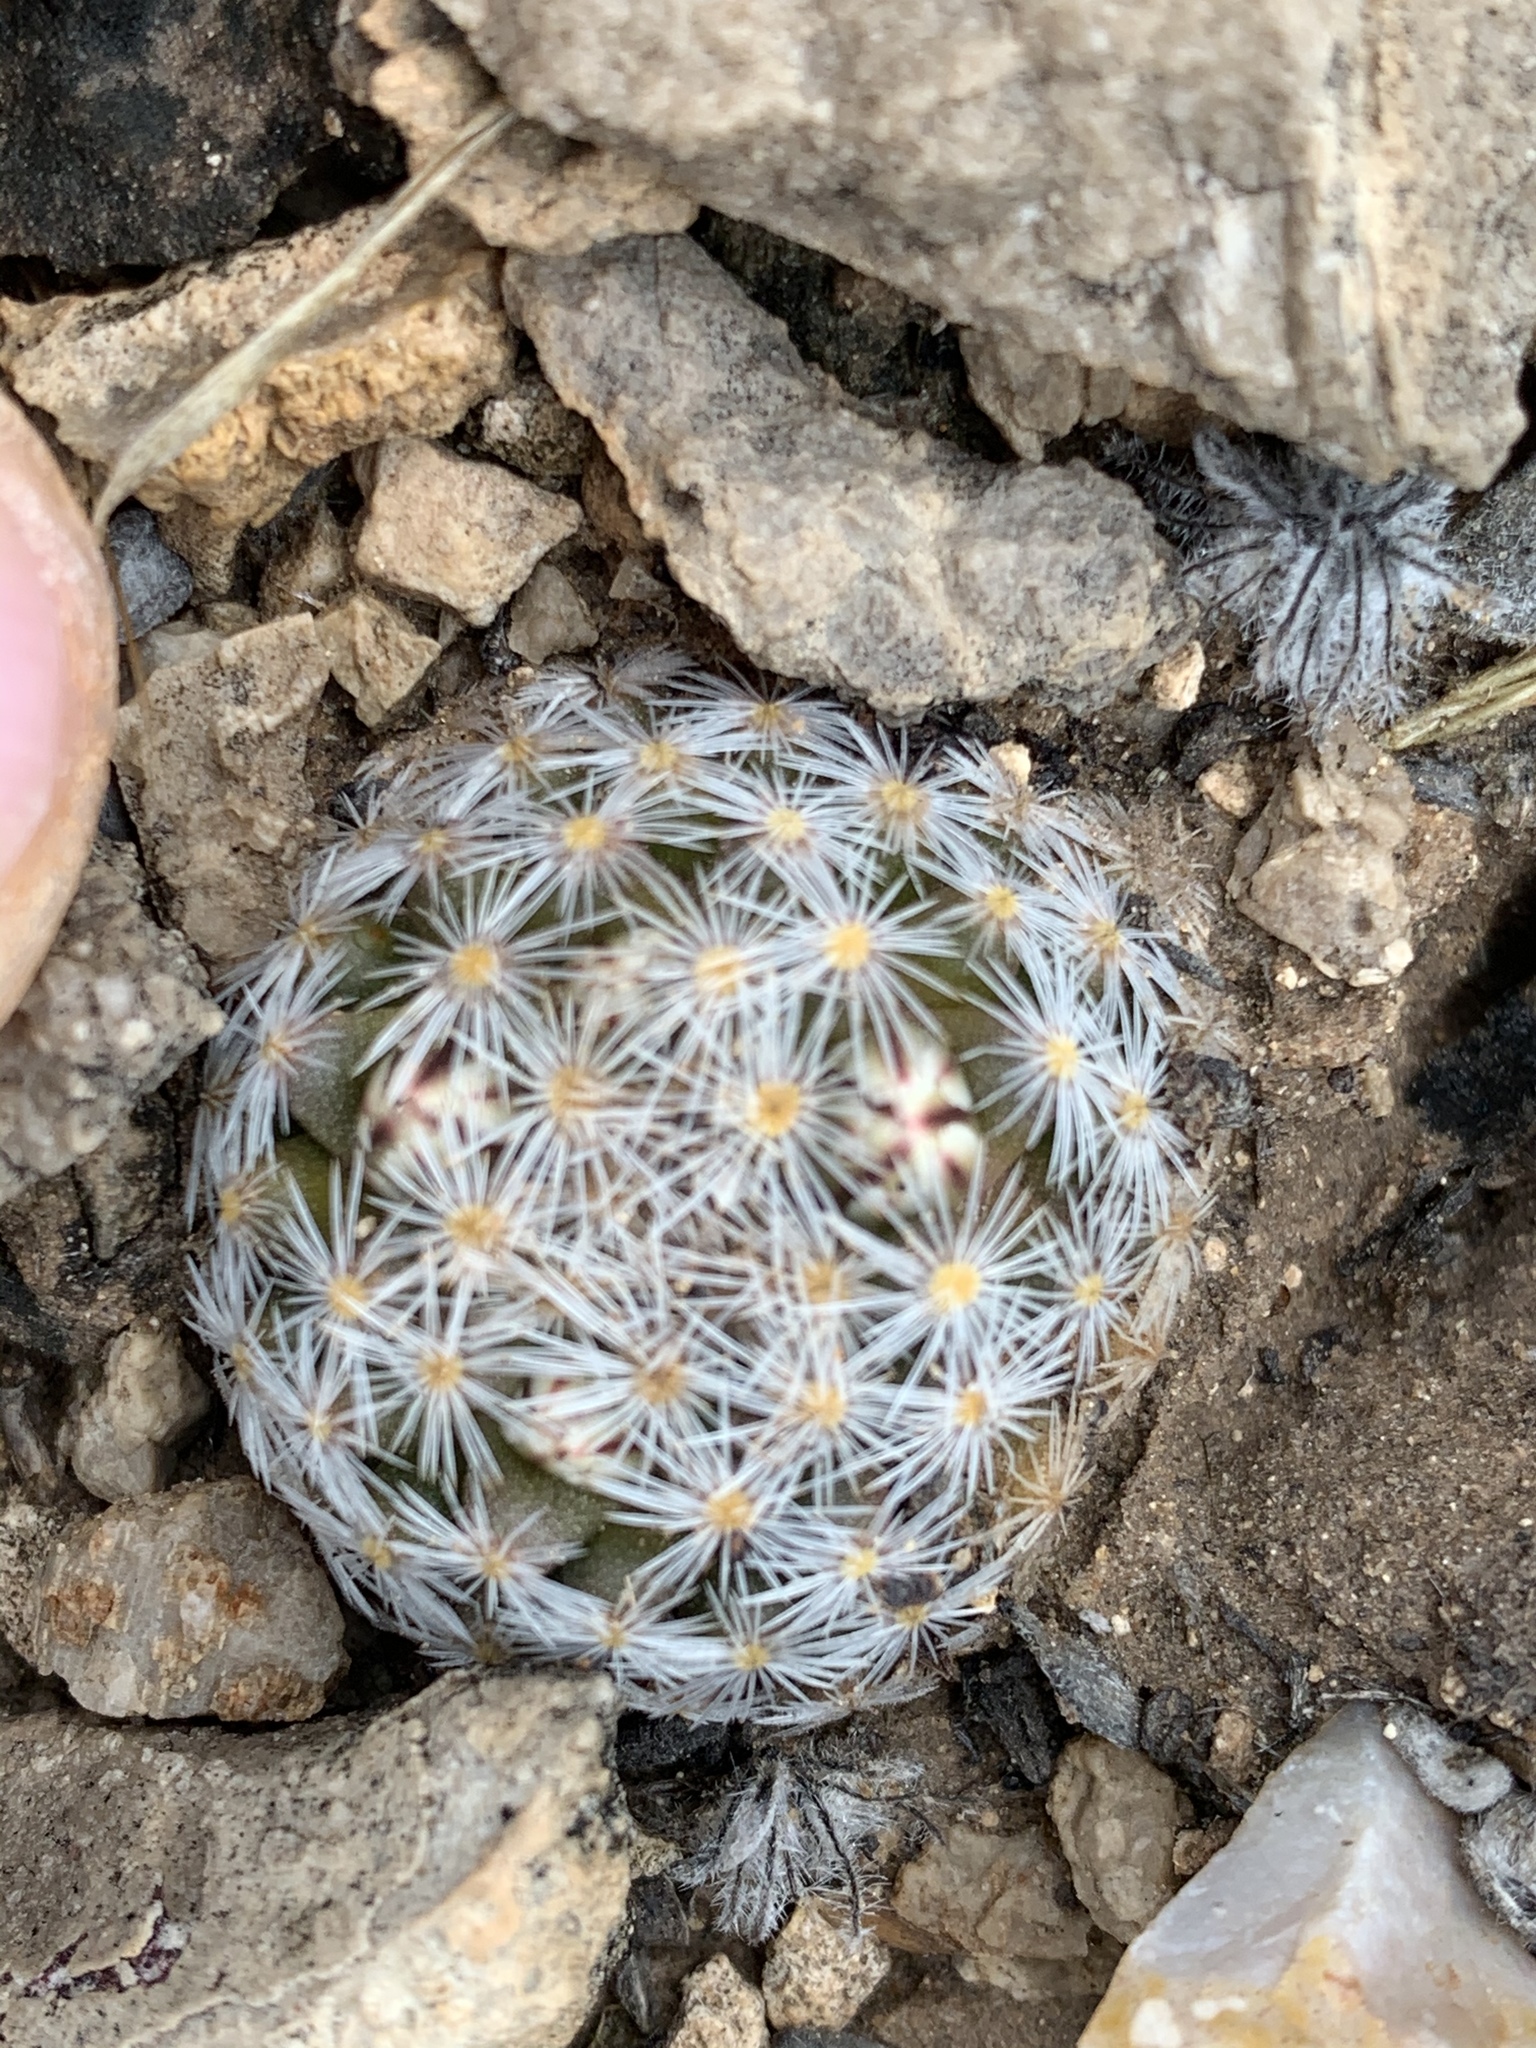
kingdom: Plantae
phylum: Tracheophyta
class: Magnoliopsida
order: Caryophyllales
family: Cactaceae
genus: Mammillaria
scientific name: Mammillaria lasiacantha
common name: Lace-spine nipple cactus
